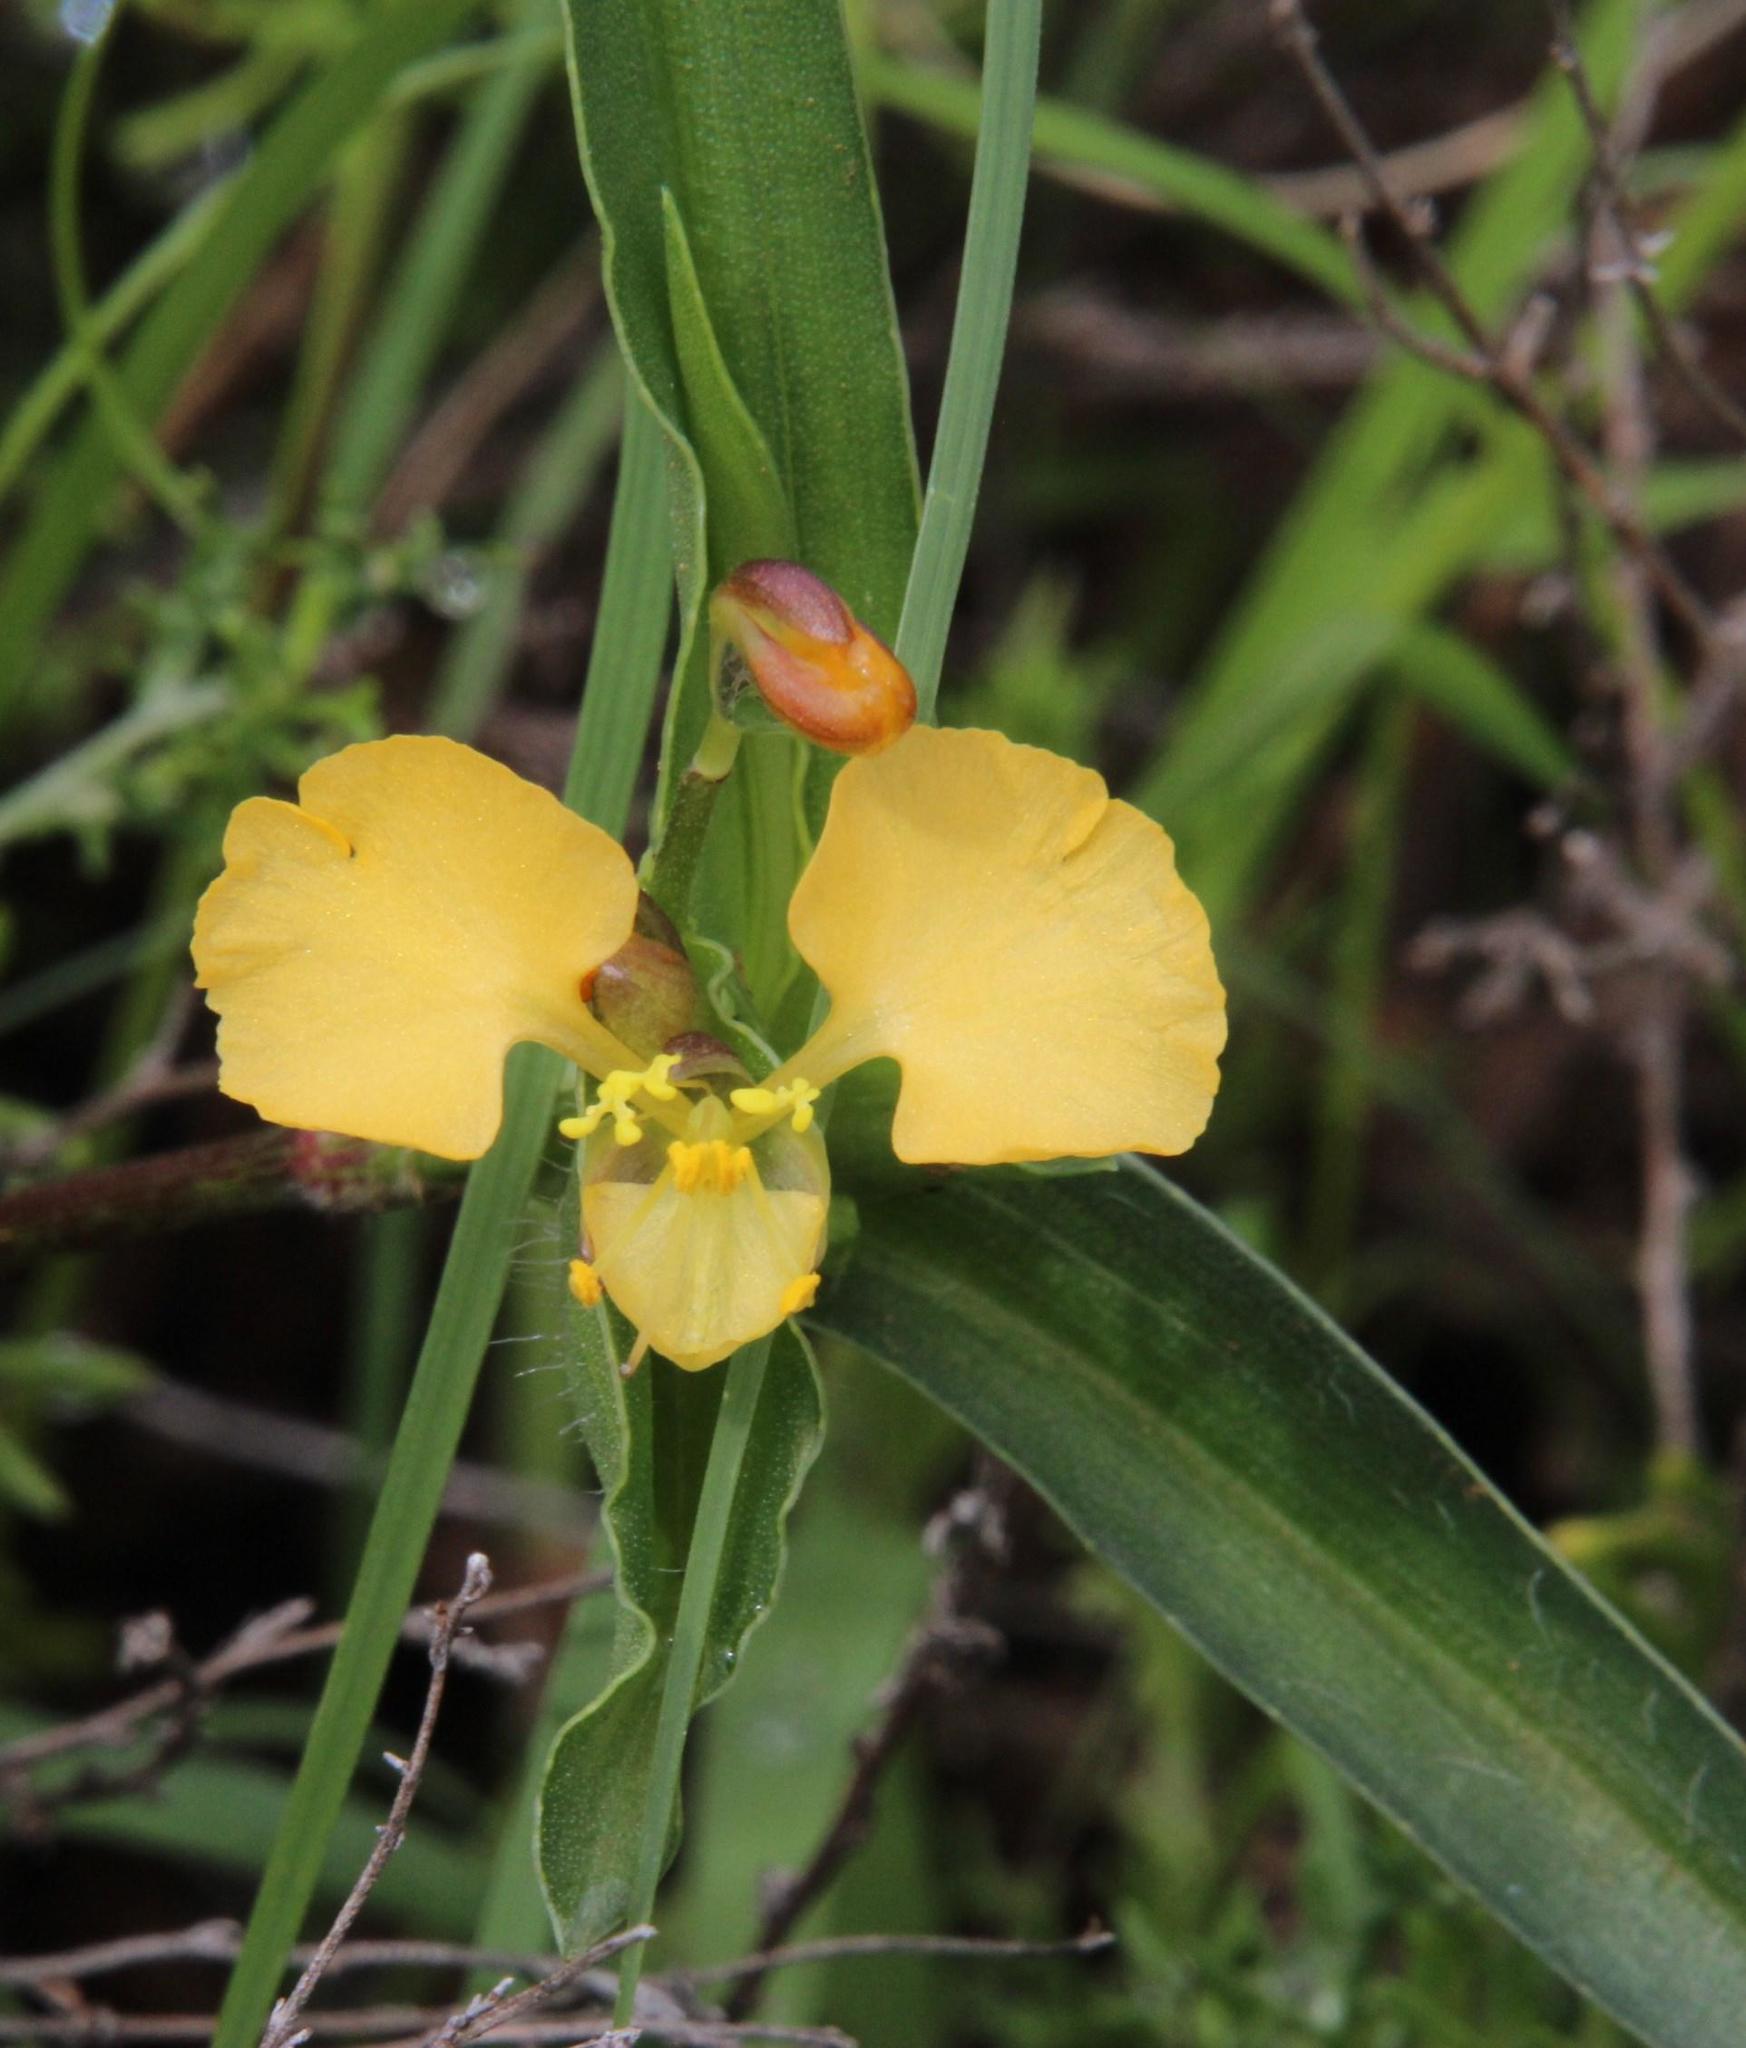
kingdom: Plantae
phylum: Tracheophyta
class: Liliopsida
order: Commelinales
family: Commelinaceae
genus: Commelina
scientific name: Commelina africana
